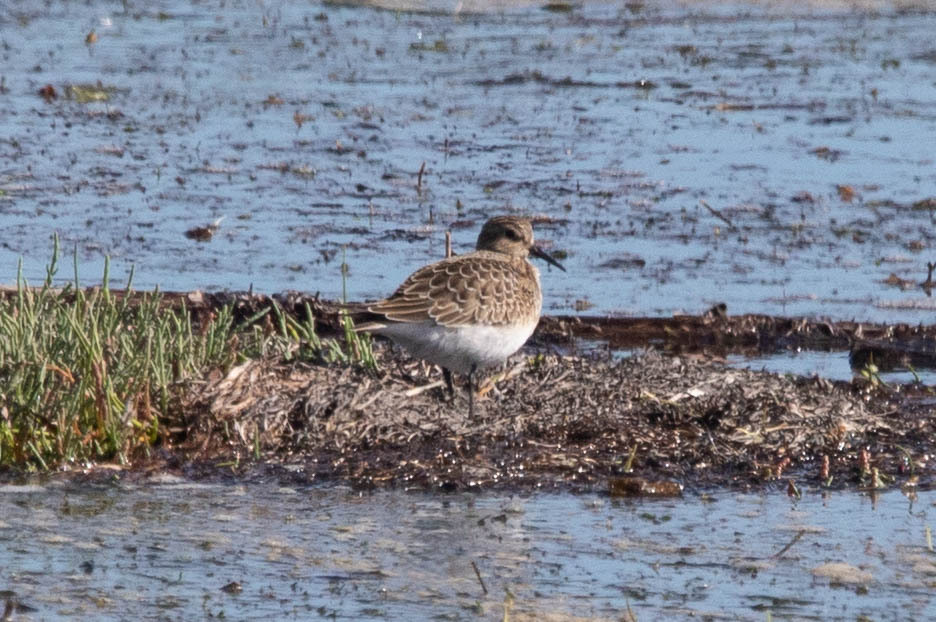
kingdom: Animalia
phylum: Chordata
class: Aves
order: Charadriiformes
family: Scolopacidae
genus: Calidris
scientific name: Calidris bairdii
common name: Baird's sandpiper
